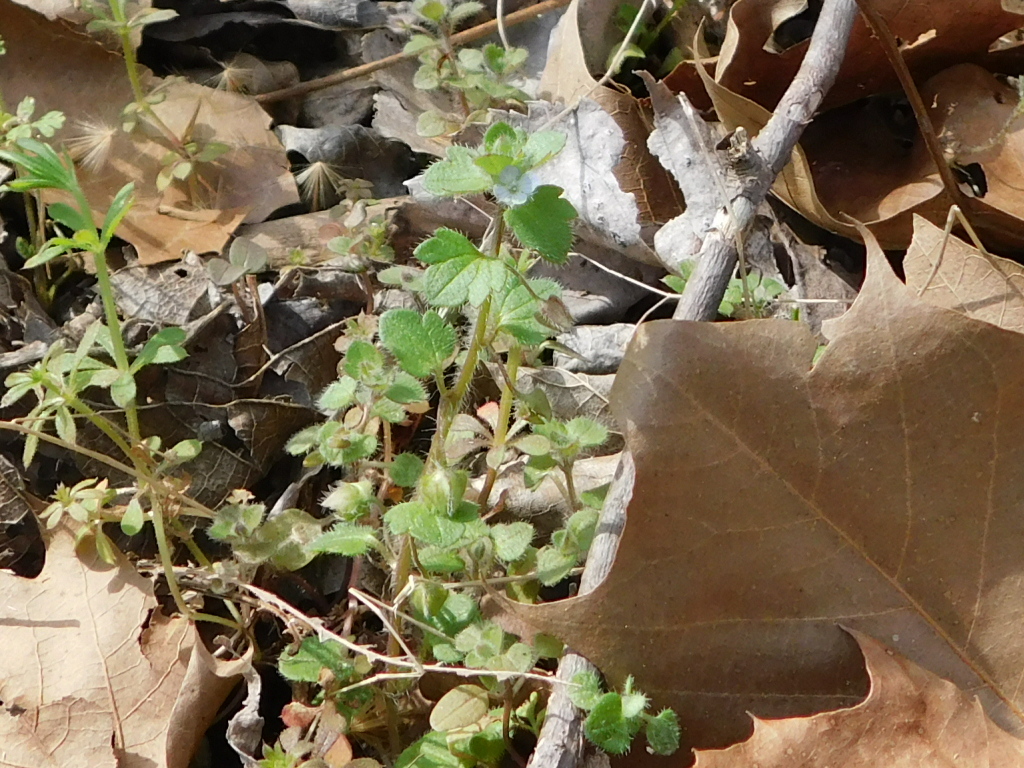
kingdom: Plantae
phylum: Tracheophyta
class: Magnoliopsida
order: Lamiales
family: Plantaginaceae
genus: Veronica
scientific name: Veronica hederifolia
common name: Ivy-leaved speedwell
